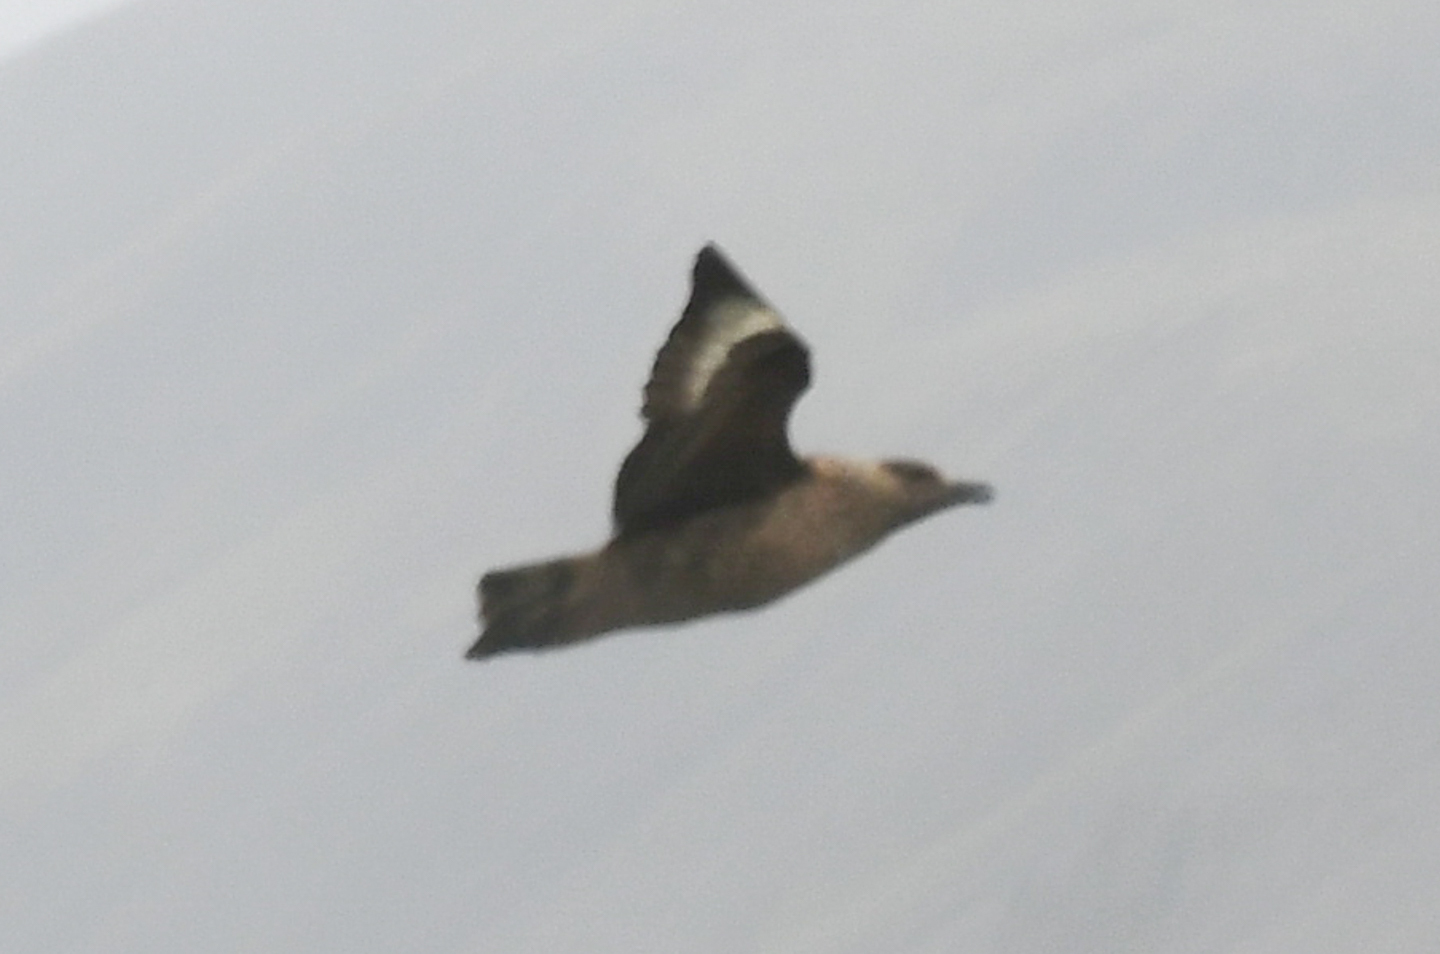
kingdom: Animalia
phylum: Chordata
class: Aves
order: Charadriiformes
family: Stercorariidae
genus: Stercorarius
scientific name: Stercorarius skua
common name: Great skua
